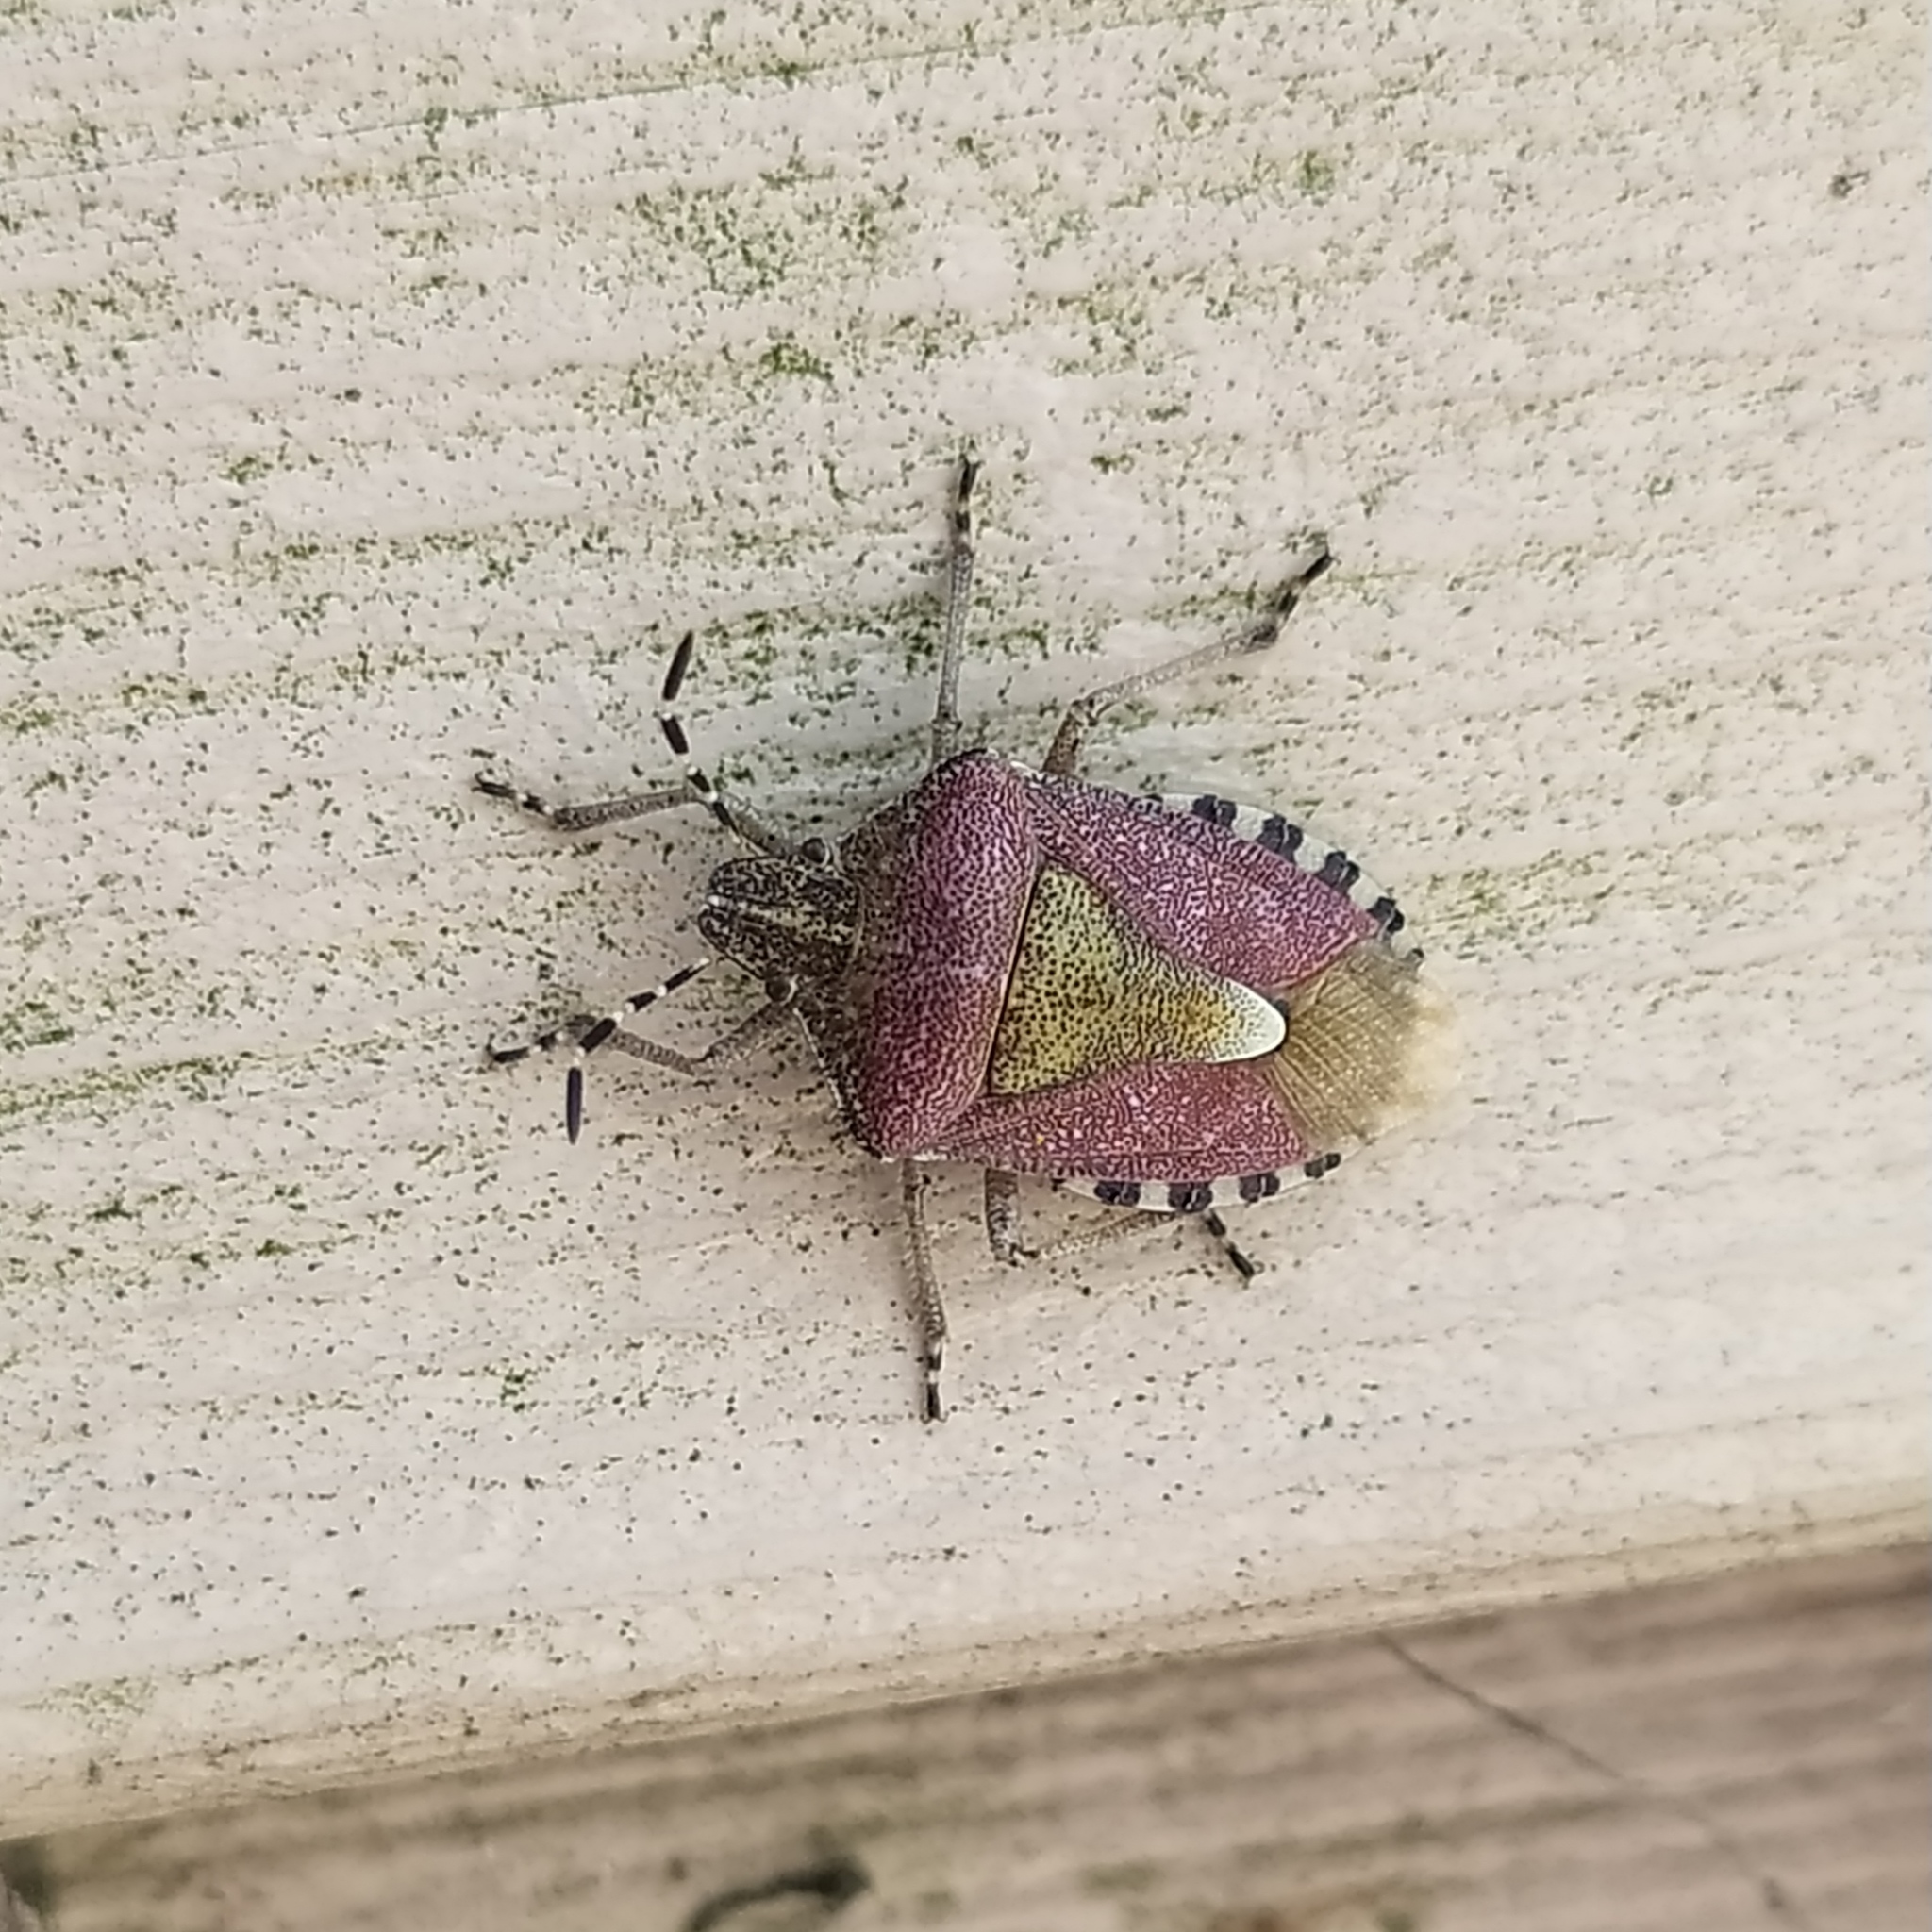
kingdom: Animalia
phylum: Arthropoda
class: Insecta
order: Hemiptera
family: Pentatomidae
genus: Dolycoris
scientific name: Dolycoris baccarum
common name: Sloe bug
